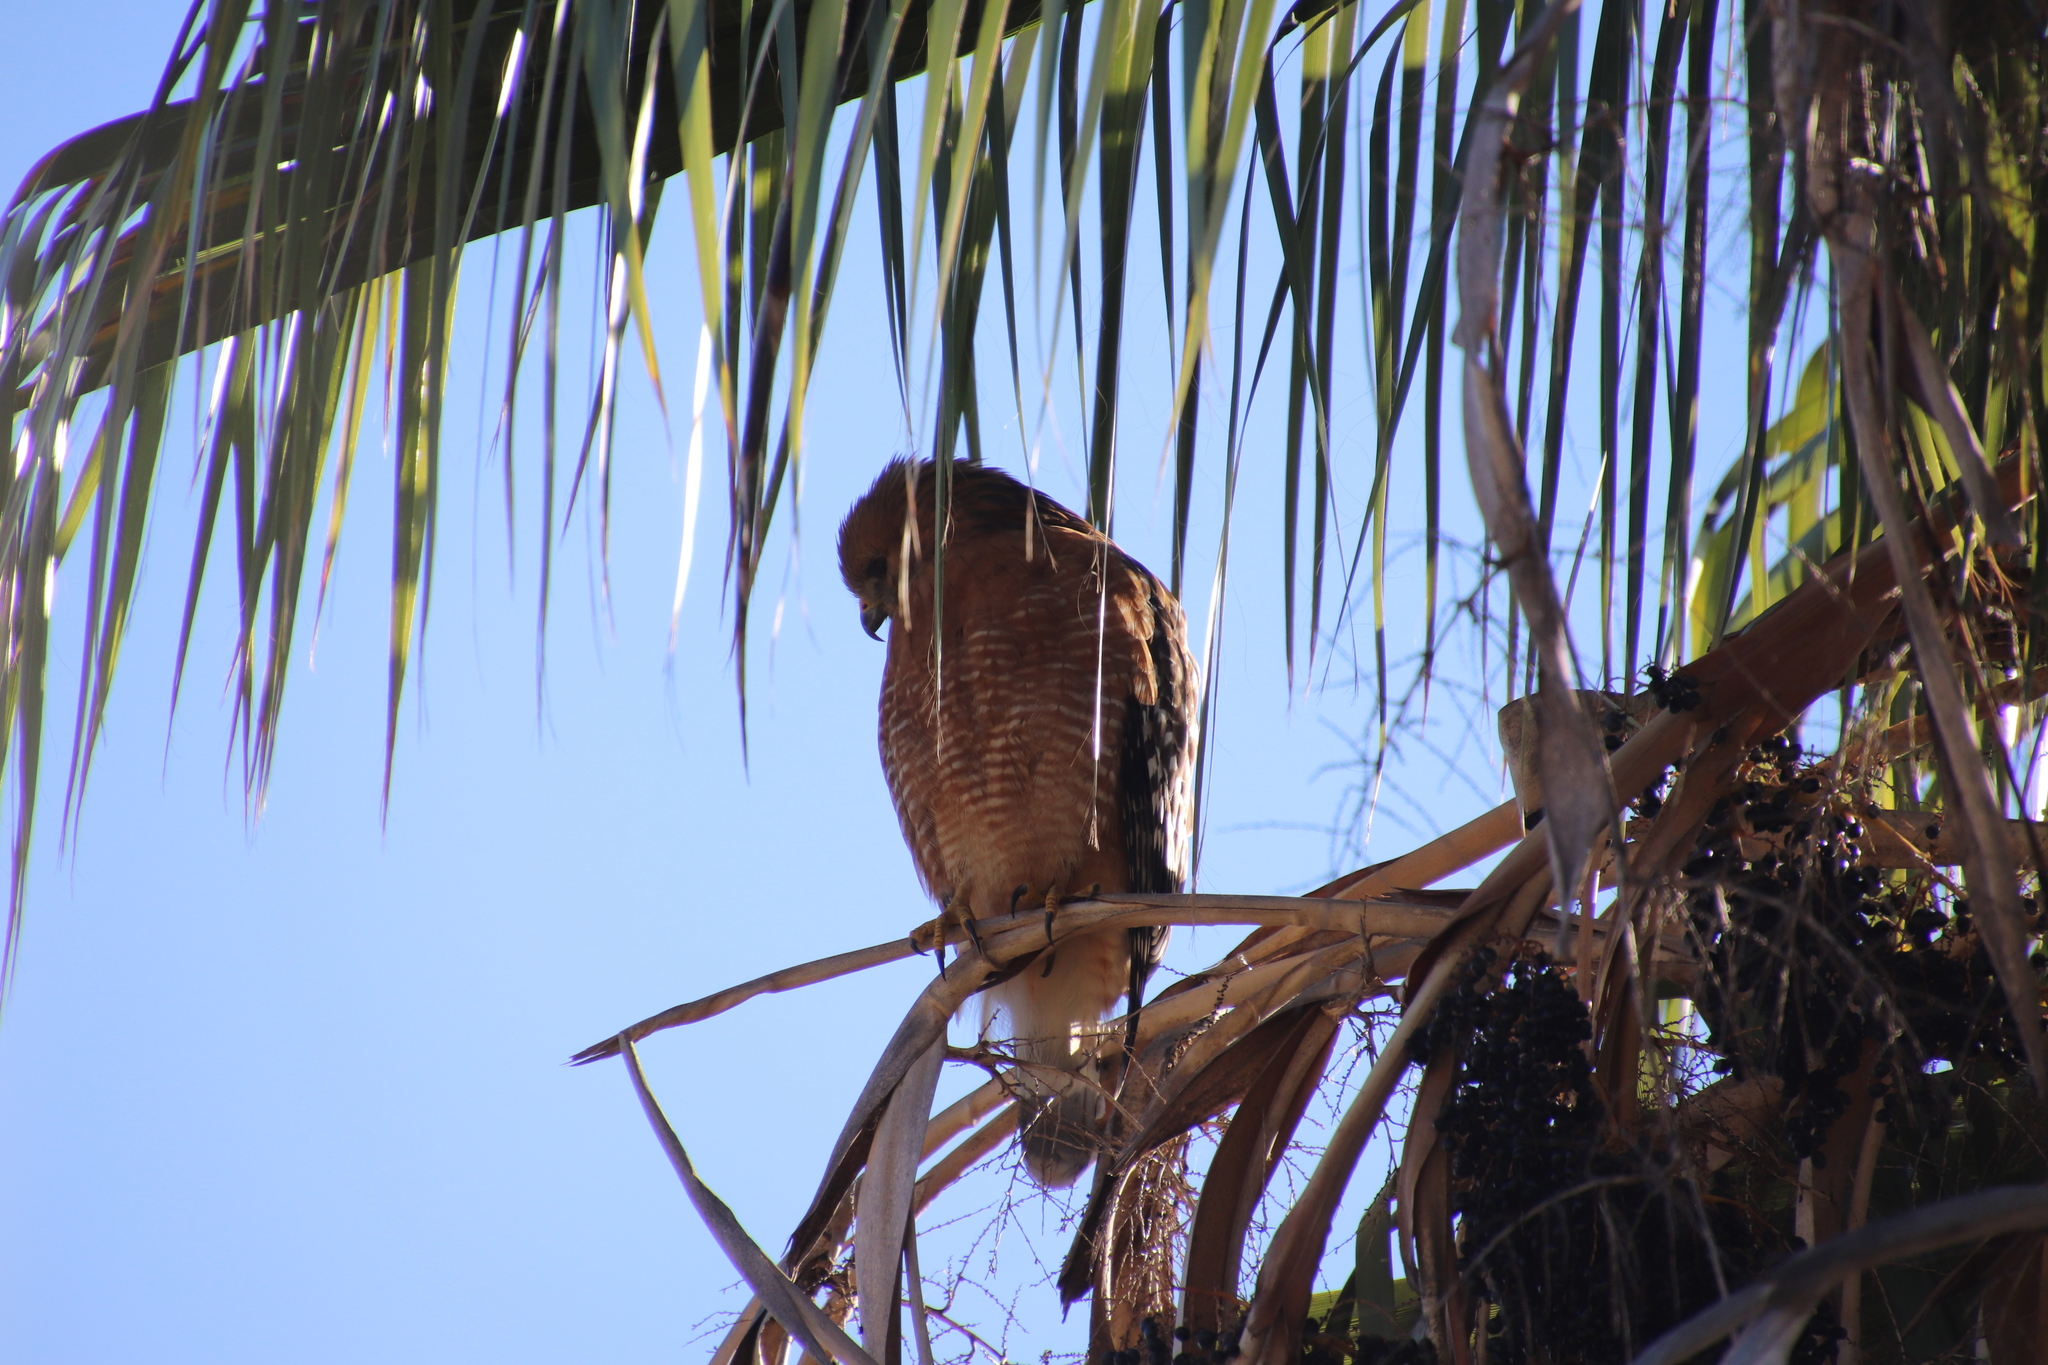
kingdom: Animalia
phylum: Chordata
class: Aves
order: Accipitriformes
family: Accipitridae
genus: Buteo
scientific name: Buteo lineatus
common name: Red-shouldered hawk
